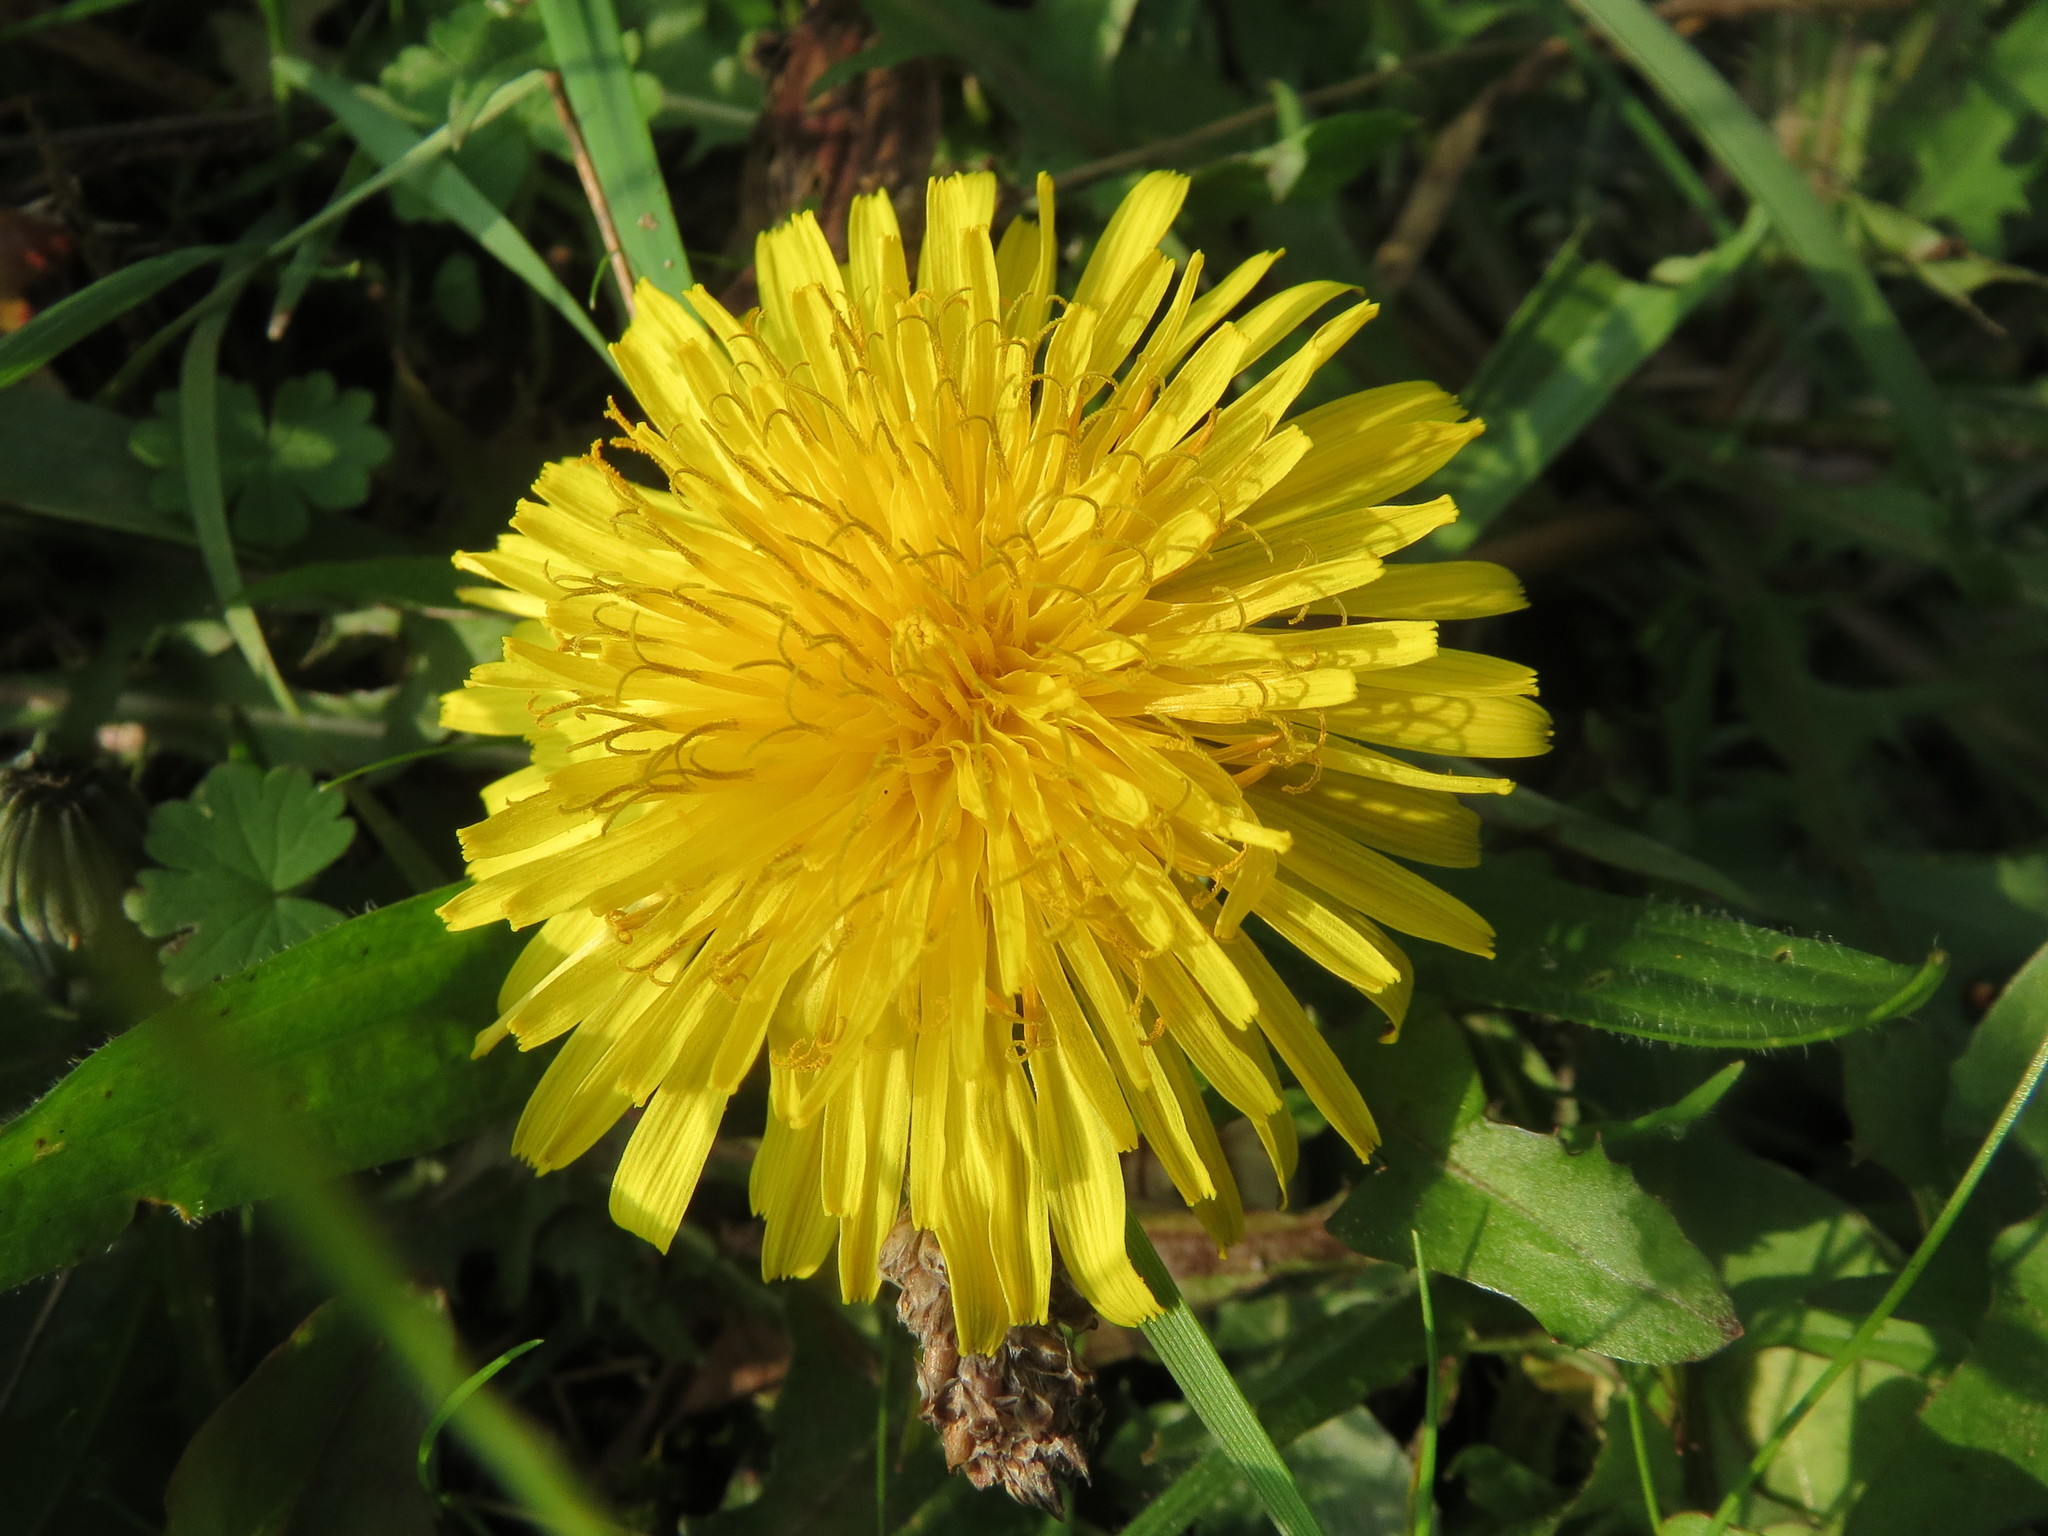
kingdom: Plantae
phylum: Tracheophyta
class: Magnoliopsida
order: Asterales
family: Asteraceae
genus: Taraxacum
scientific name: Taraxacum officinale
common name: Common dandelion
